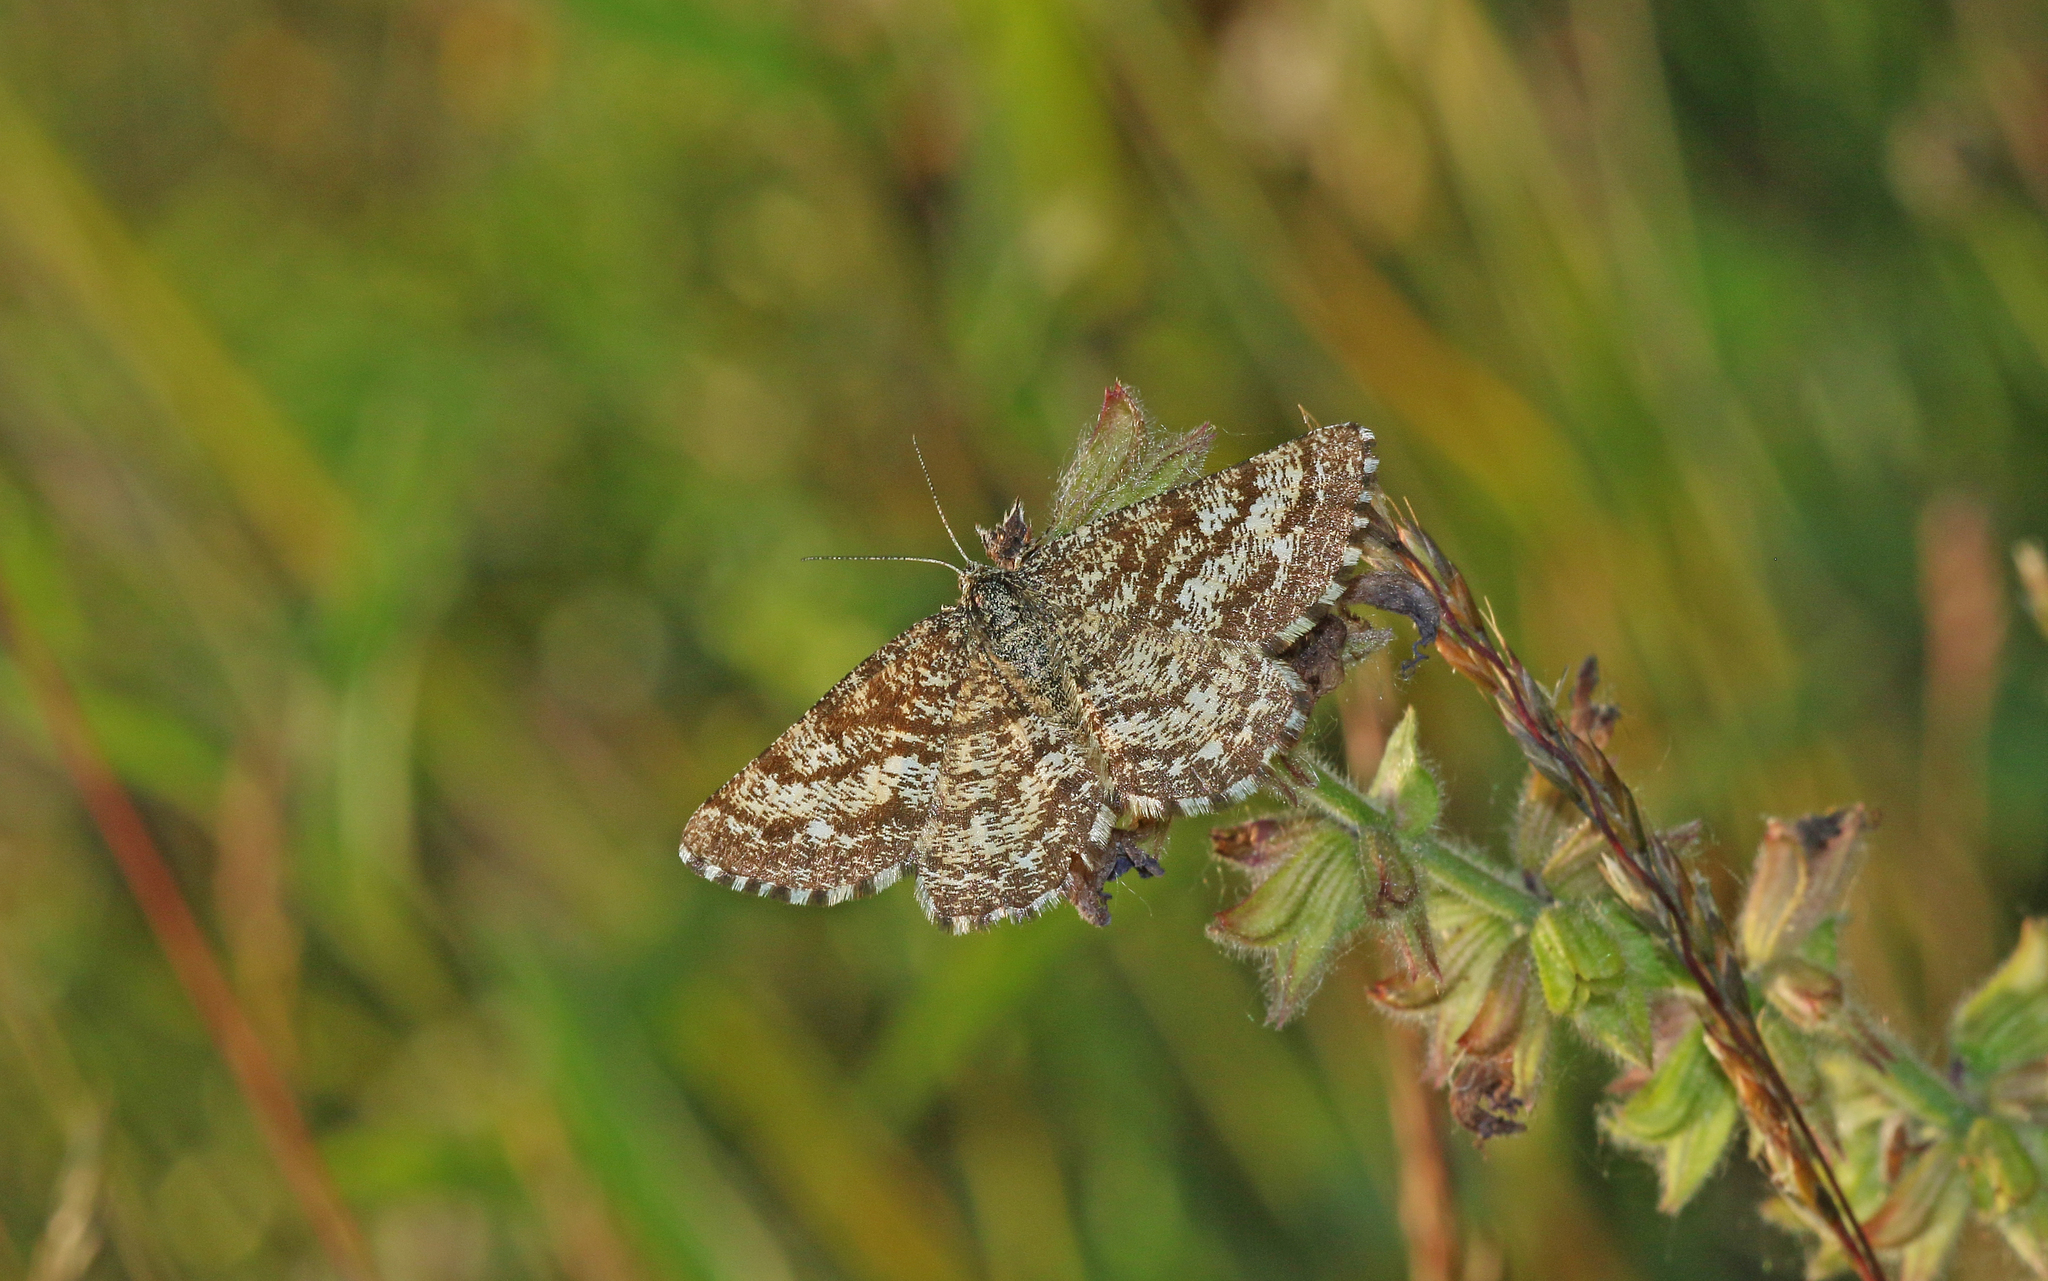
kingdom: Animalia
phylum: Arthropoda
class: Insecta
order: Lepidoptera
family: Geometridae
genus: Ematurga
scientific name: Ematurga atomaria
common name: Common heath
